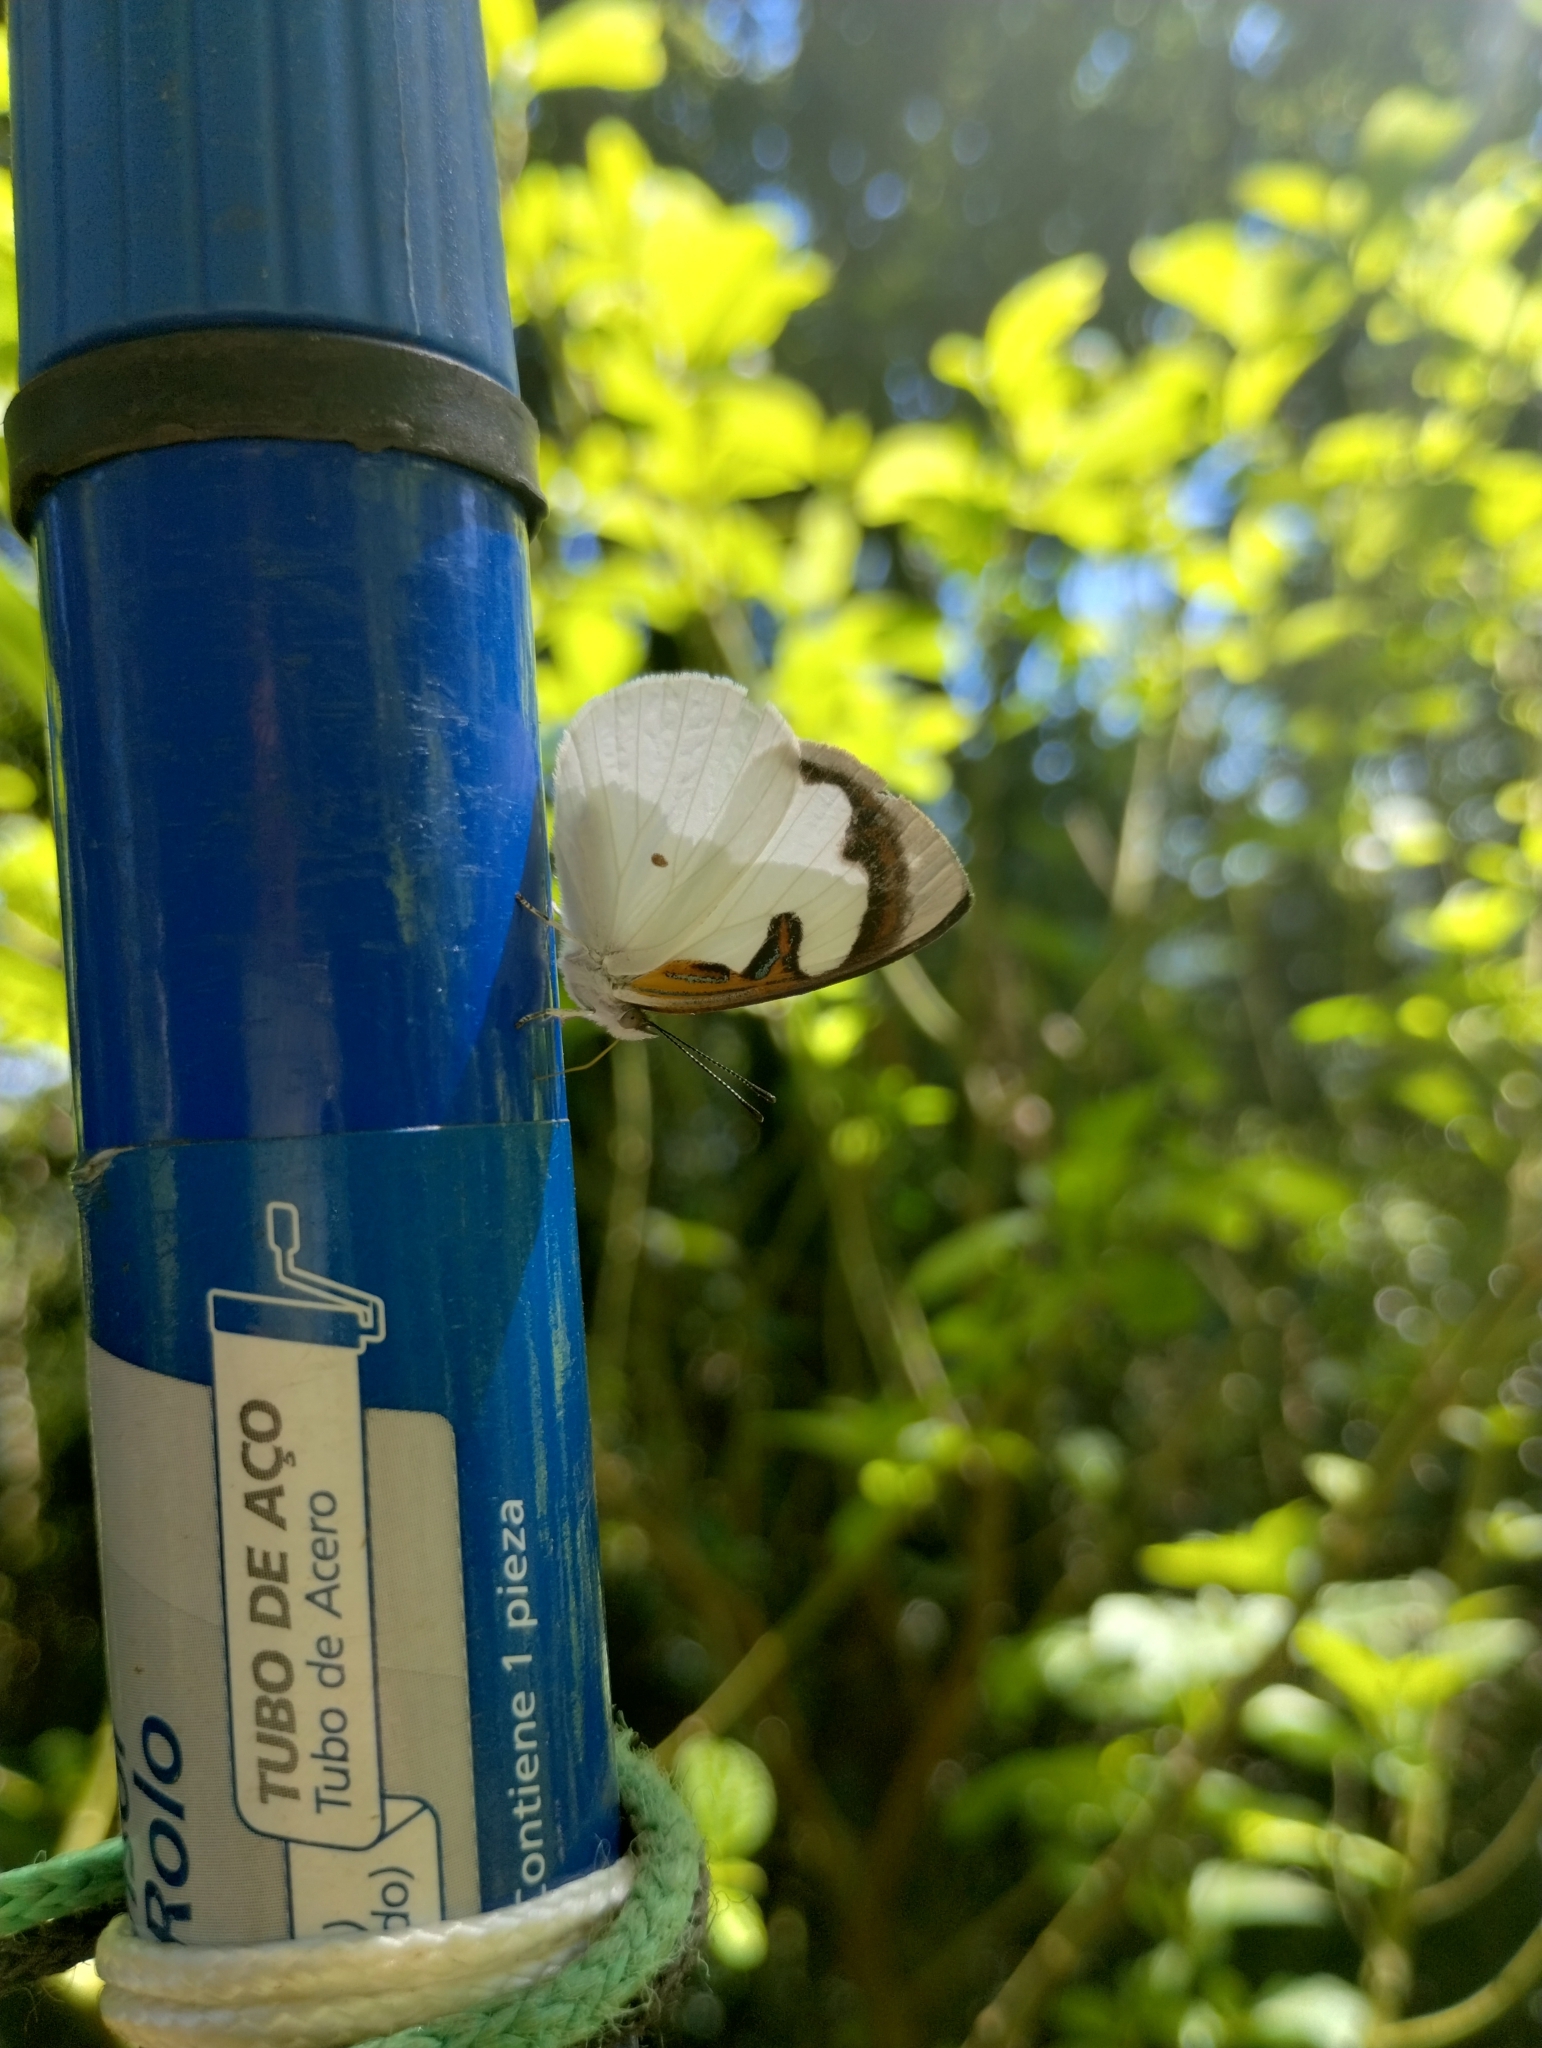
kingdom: Animalia
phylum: Arthropoda
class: Insecta
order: Lepidoptera
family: Nymphalidae
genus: Dynamine
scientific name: Dynamine myrrhina
